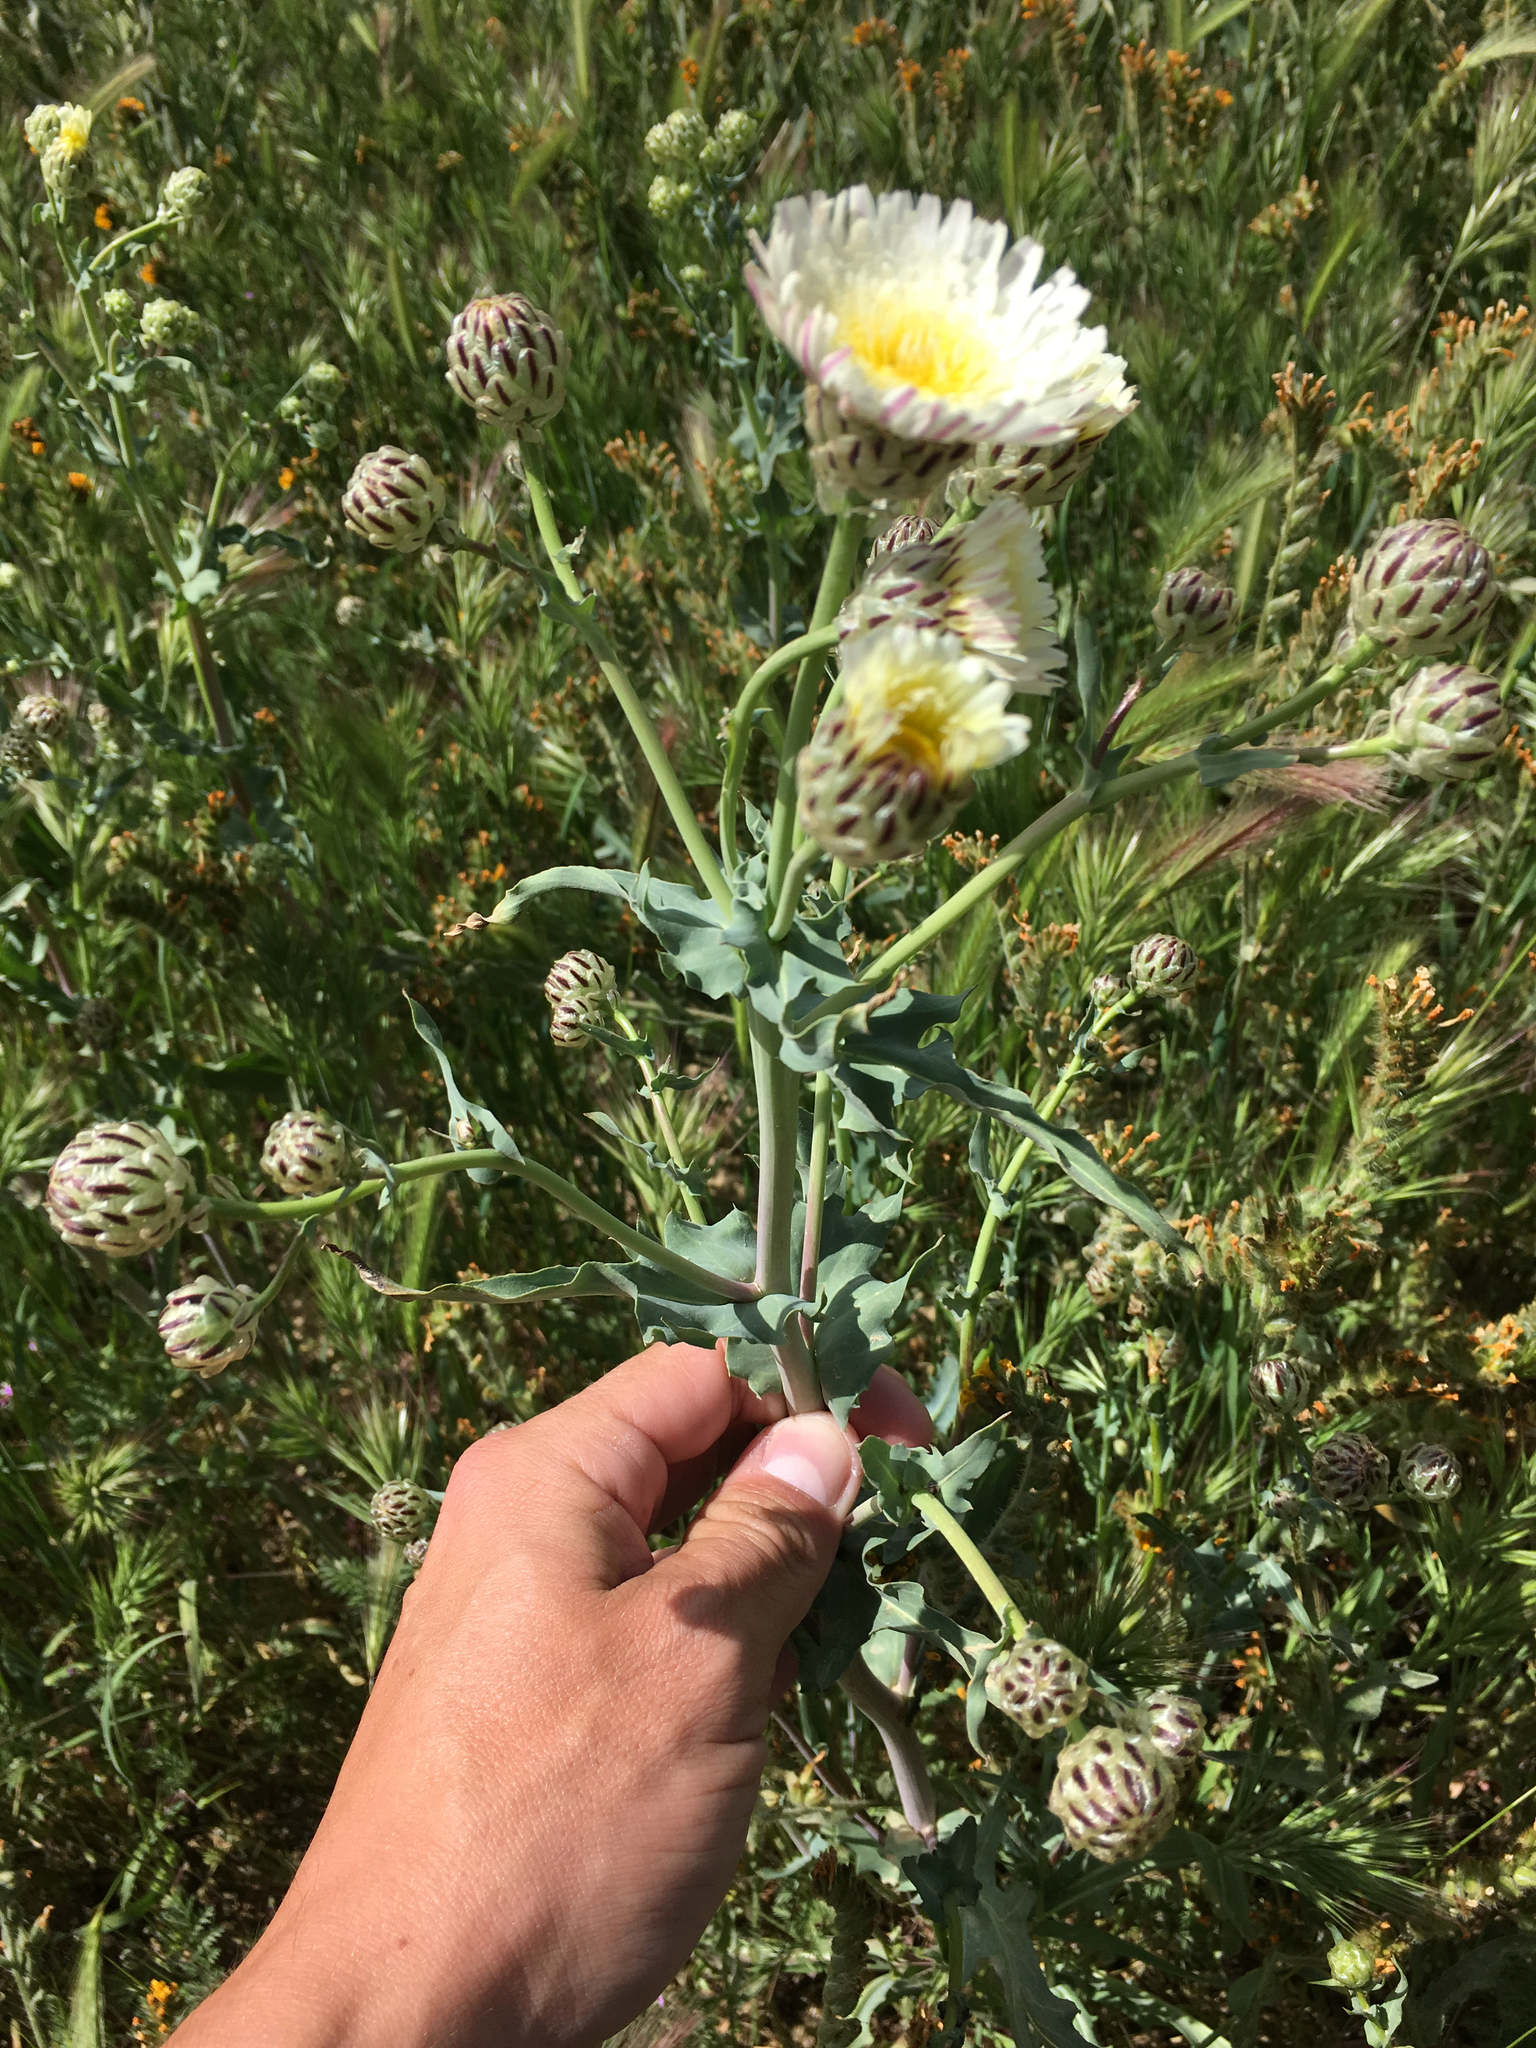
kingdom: Plantae
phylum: Tracheophyta
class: Magnoliopsida
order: Asterales
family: Asteraceae
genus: Malacothrix
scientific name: Malacothrix coulteri
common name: Snake's-head
